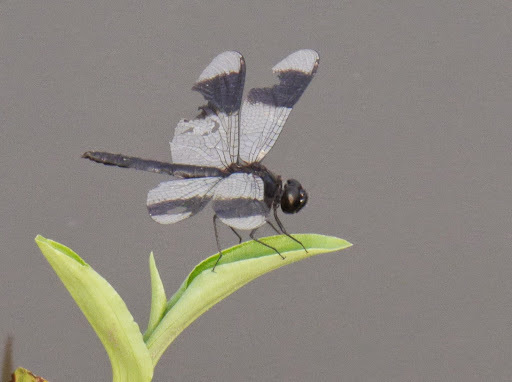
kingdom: Animalia
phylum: Arthropoda
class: Insecta
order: Odonata
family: Libellulidae
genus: Brachythemis
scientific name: Brachythemis leucosticta
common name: Banded groundling
